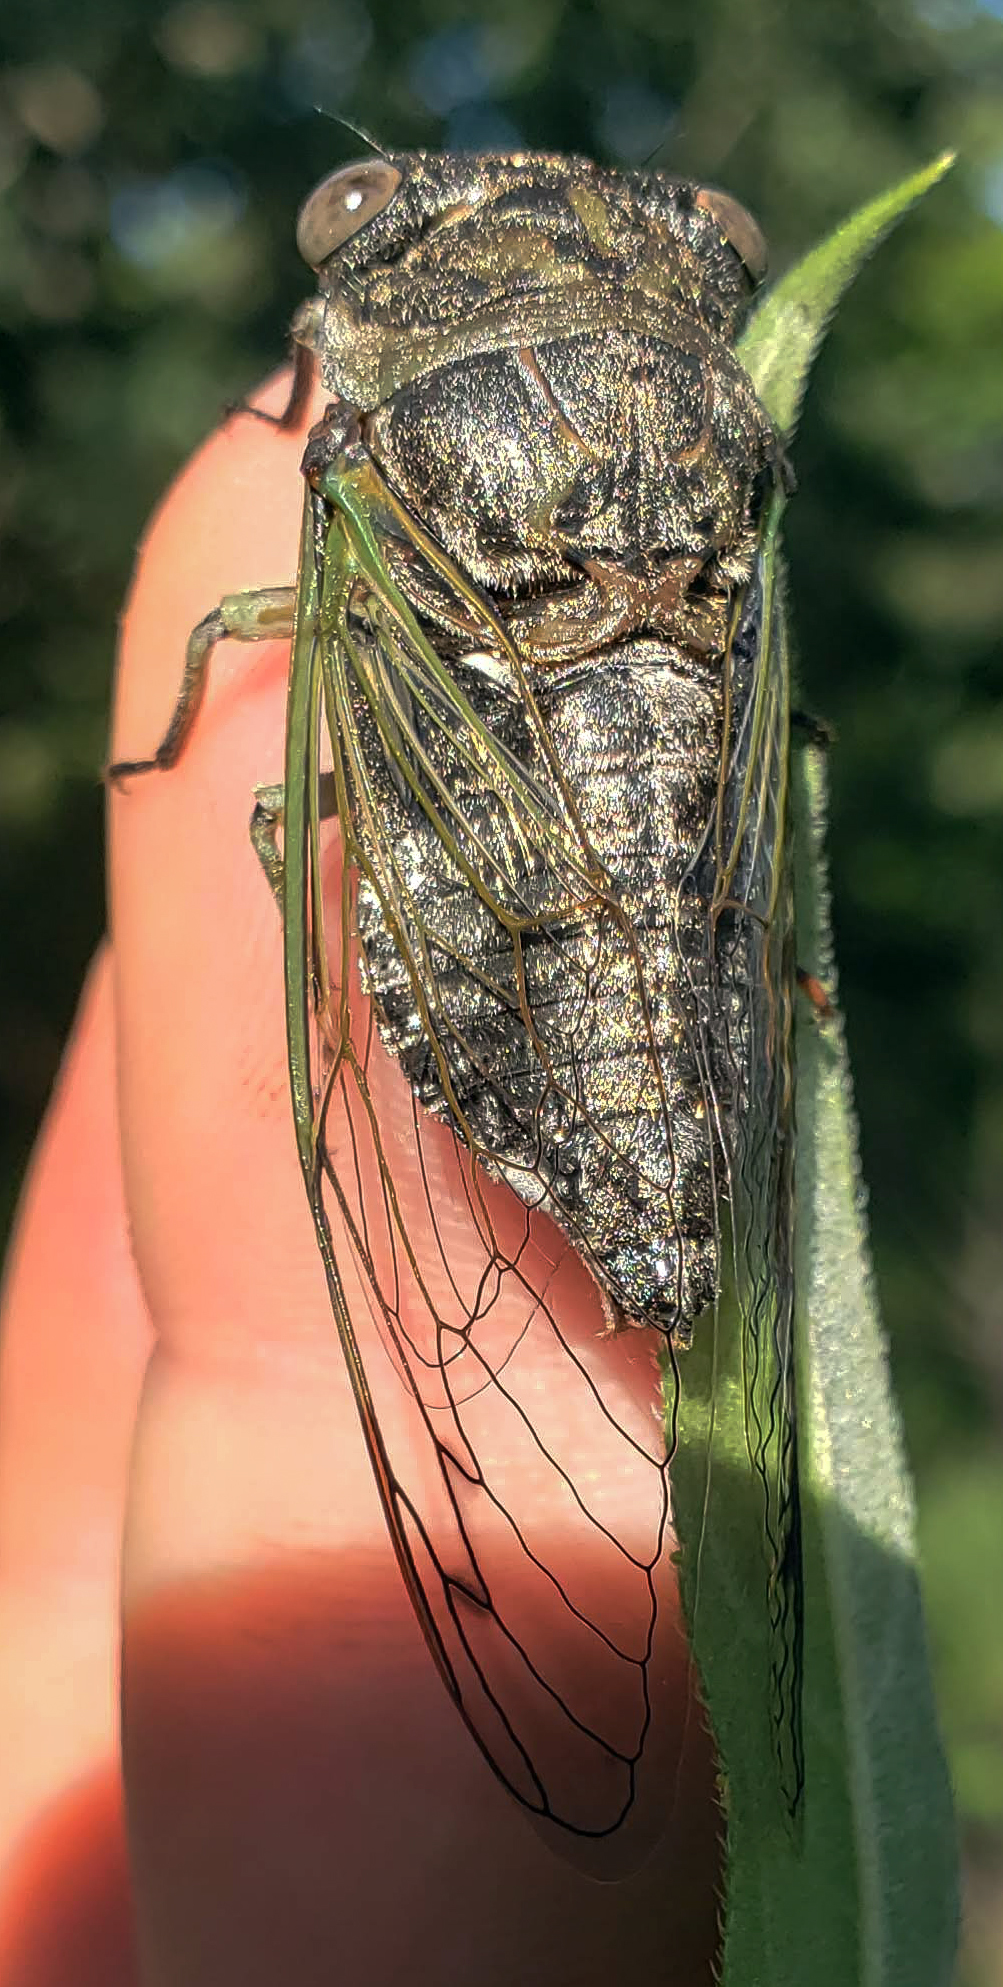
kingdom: Animalia
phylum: Arthropoda
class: Insecta
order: Hemiptera
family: Cicadidae
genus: Neotibicen
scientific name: Neotibicen canicularis
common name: God-day cicada
